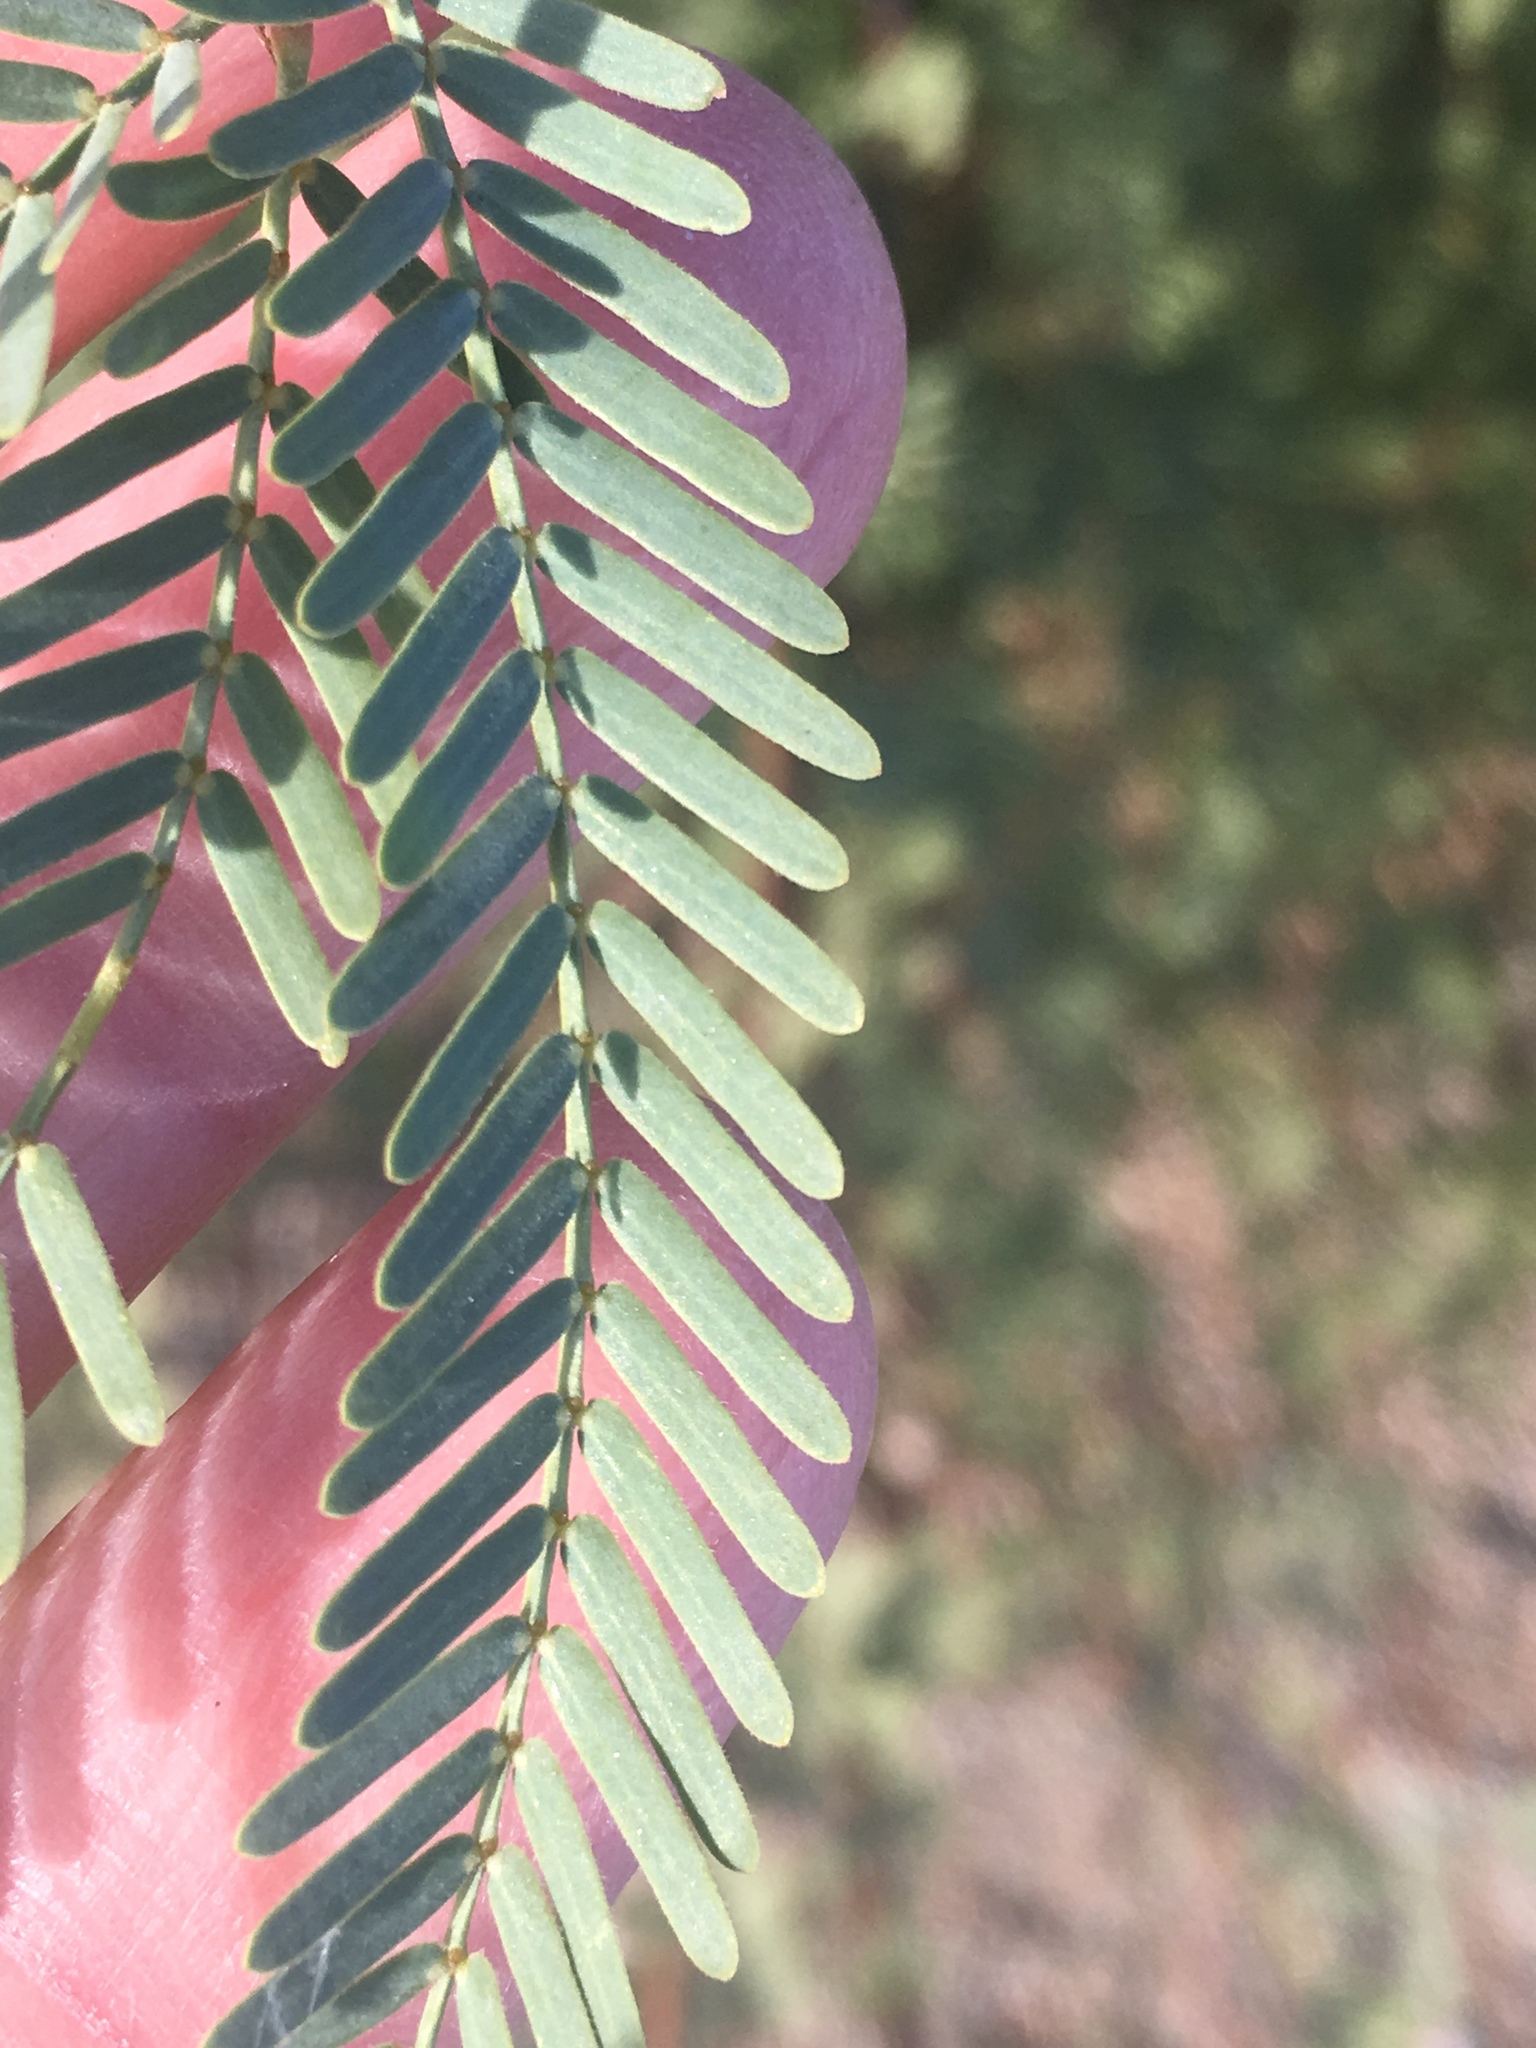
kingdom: Plantae
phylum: Tracheophyta
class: Magnoliopsida
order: Fabales
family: Fabaceae
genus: Prosopis
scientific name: Prosopis pubescens
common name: Screw-bean
